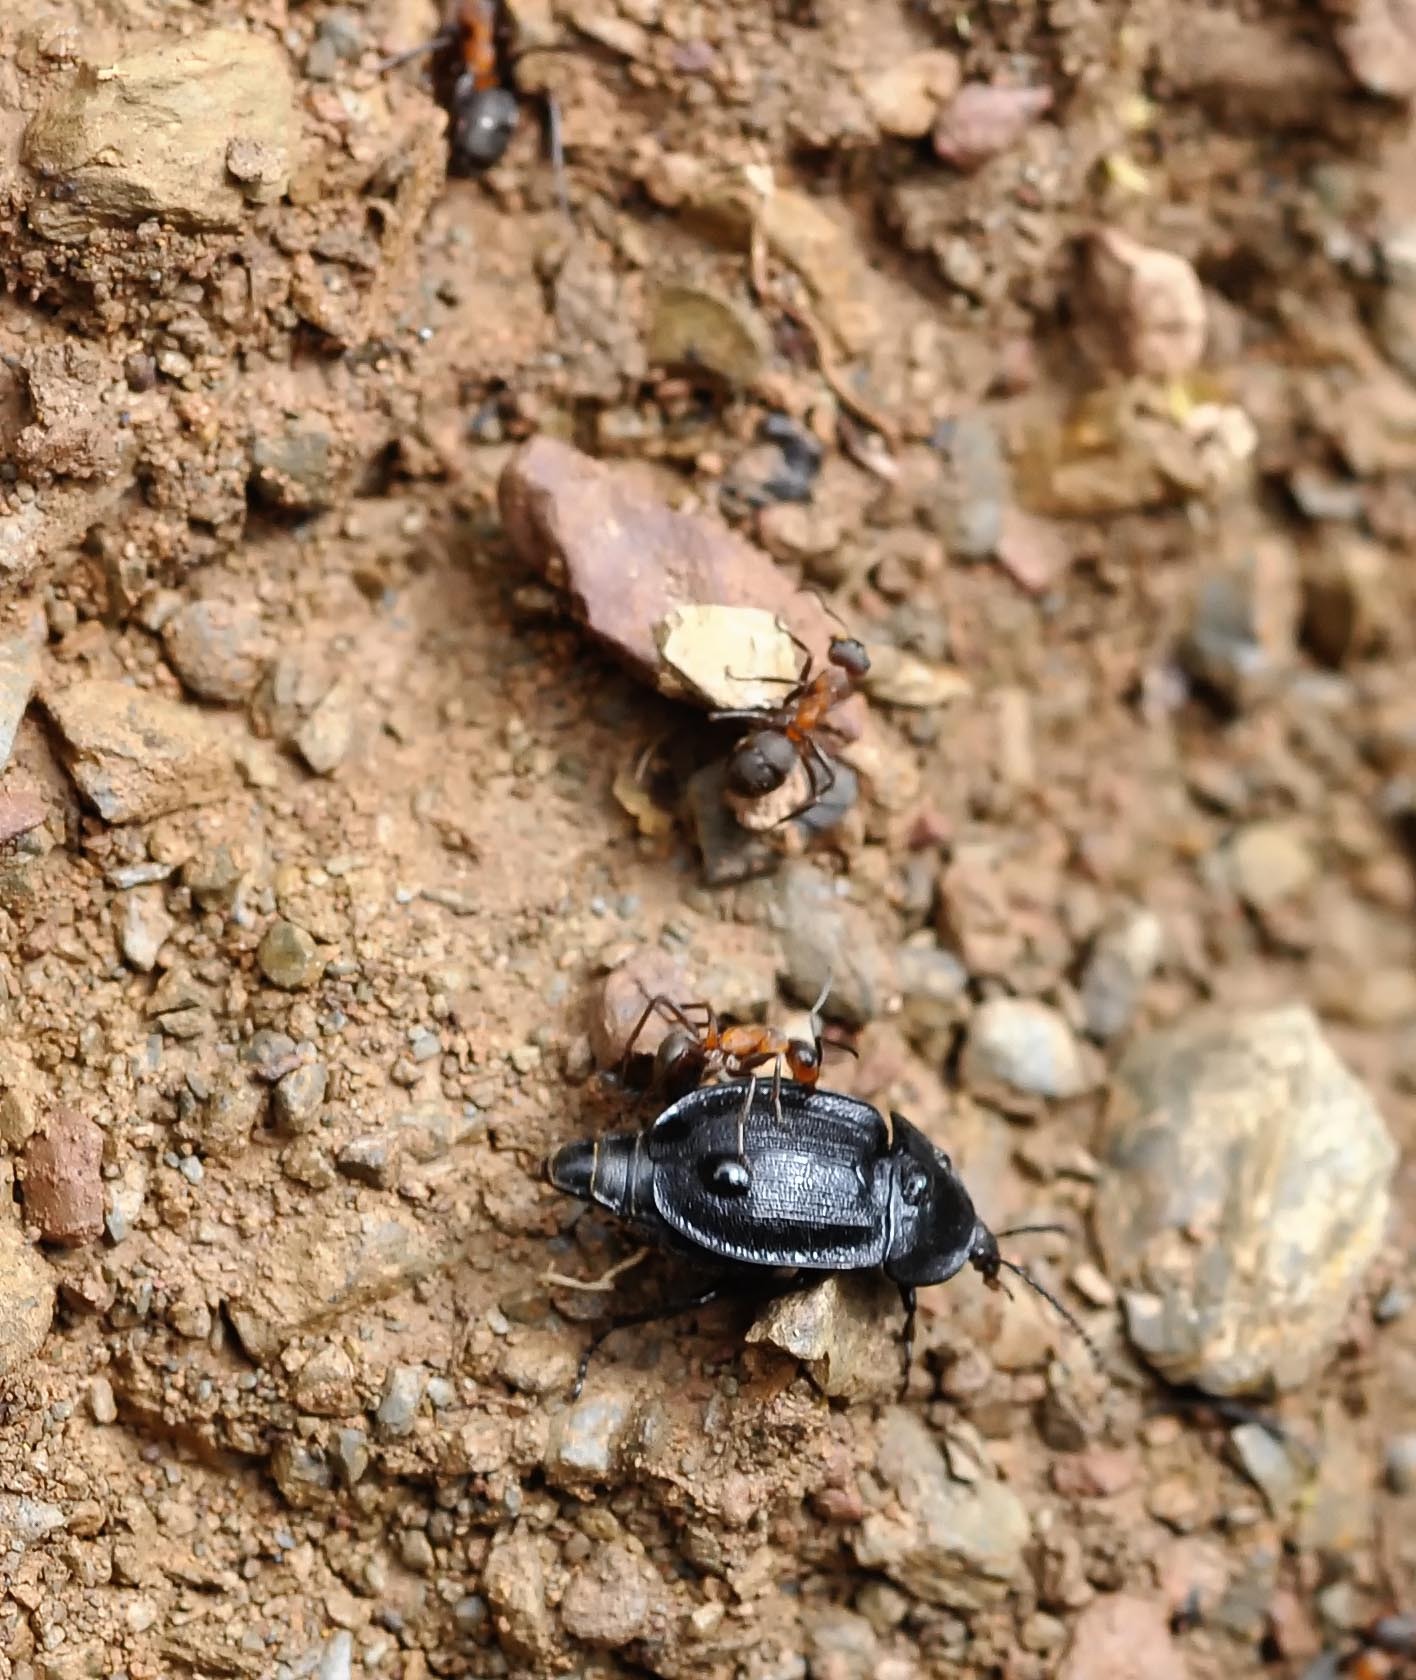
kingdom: Animalia
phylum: Arthropoda
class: Insecta
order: Coleoptera
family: Staphylinidae
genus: Silpha
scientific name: Silpha atrata
